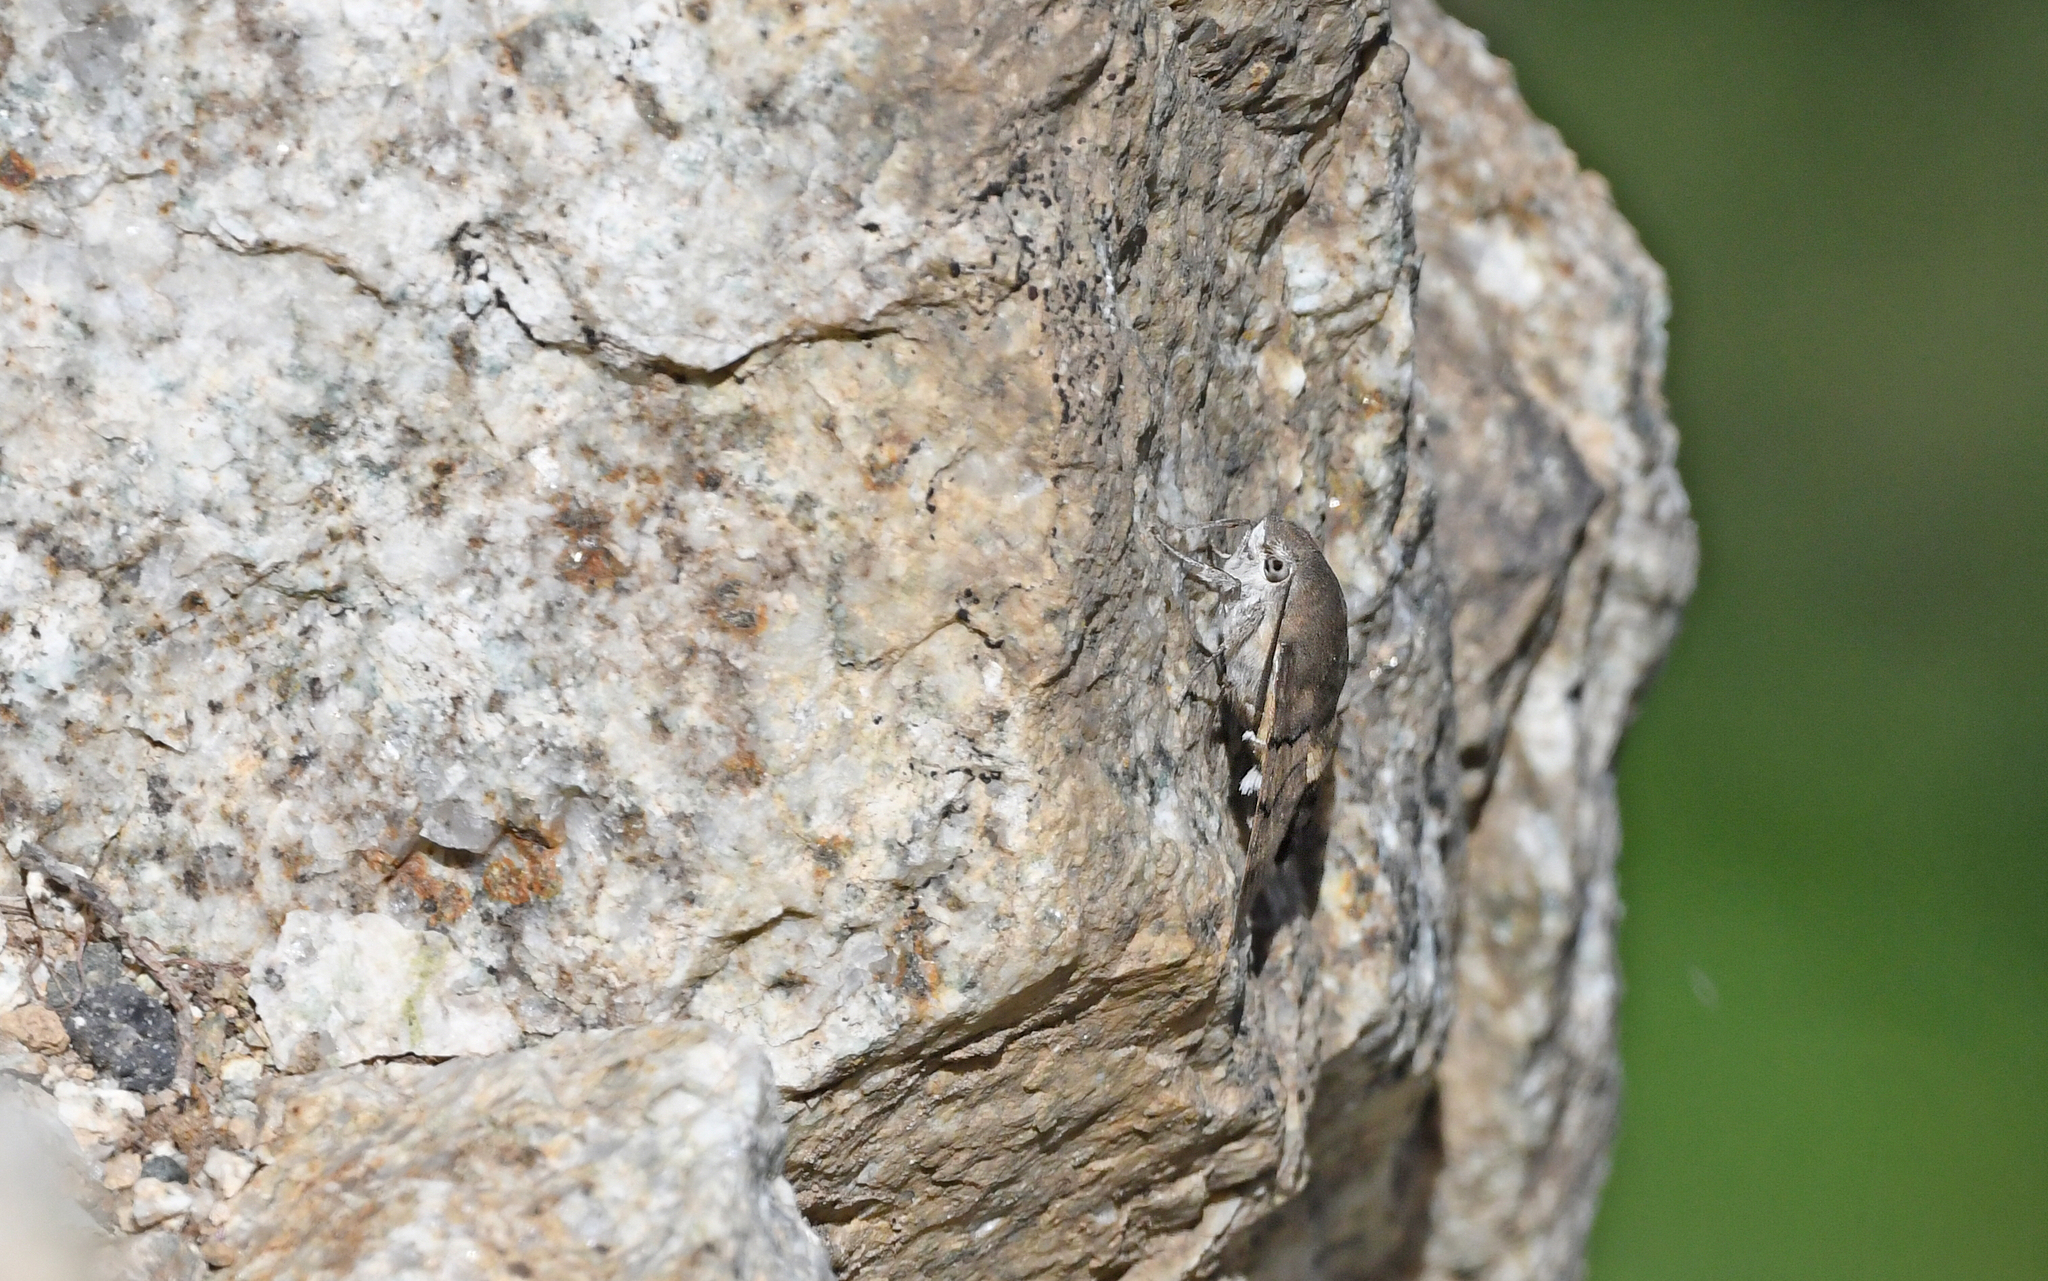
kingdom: Animalia
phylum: Arthropoda
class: Insecta
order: Lepidoptera
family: Sphingidae
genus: Macroglossum
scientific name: Macroglossum stellatarum
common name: Humming-bird hawk-moth
